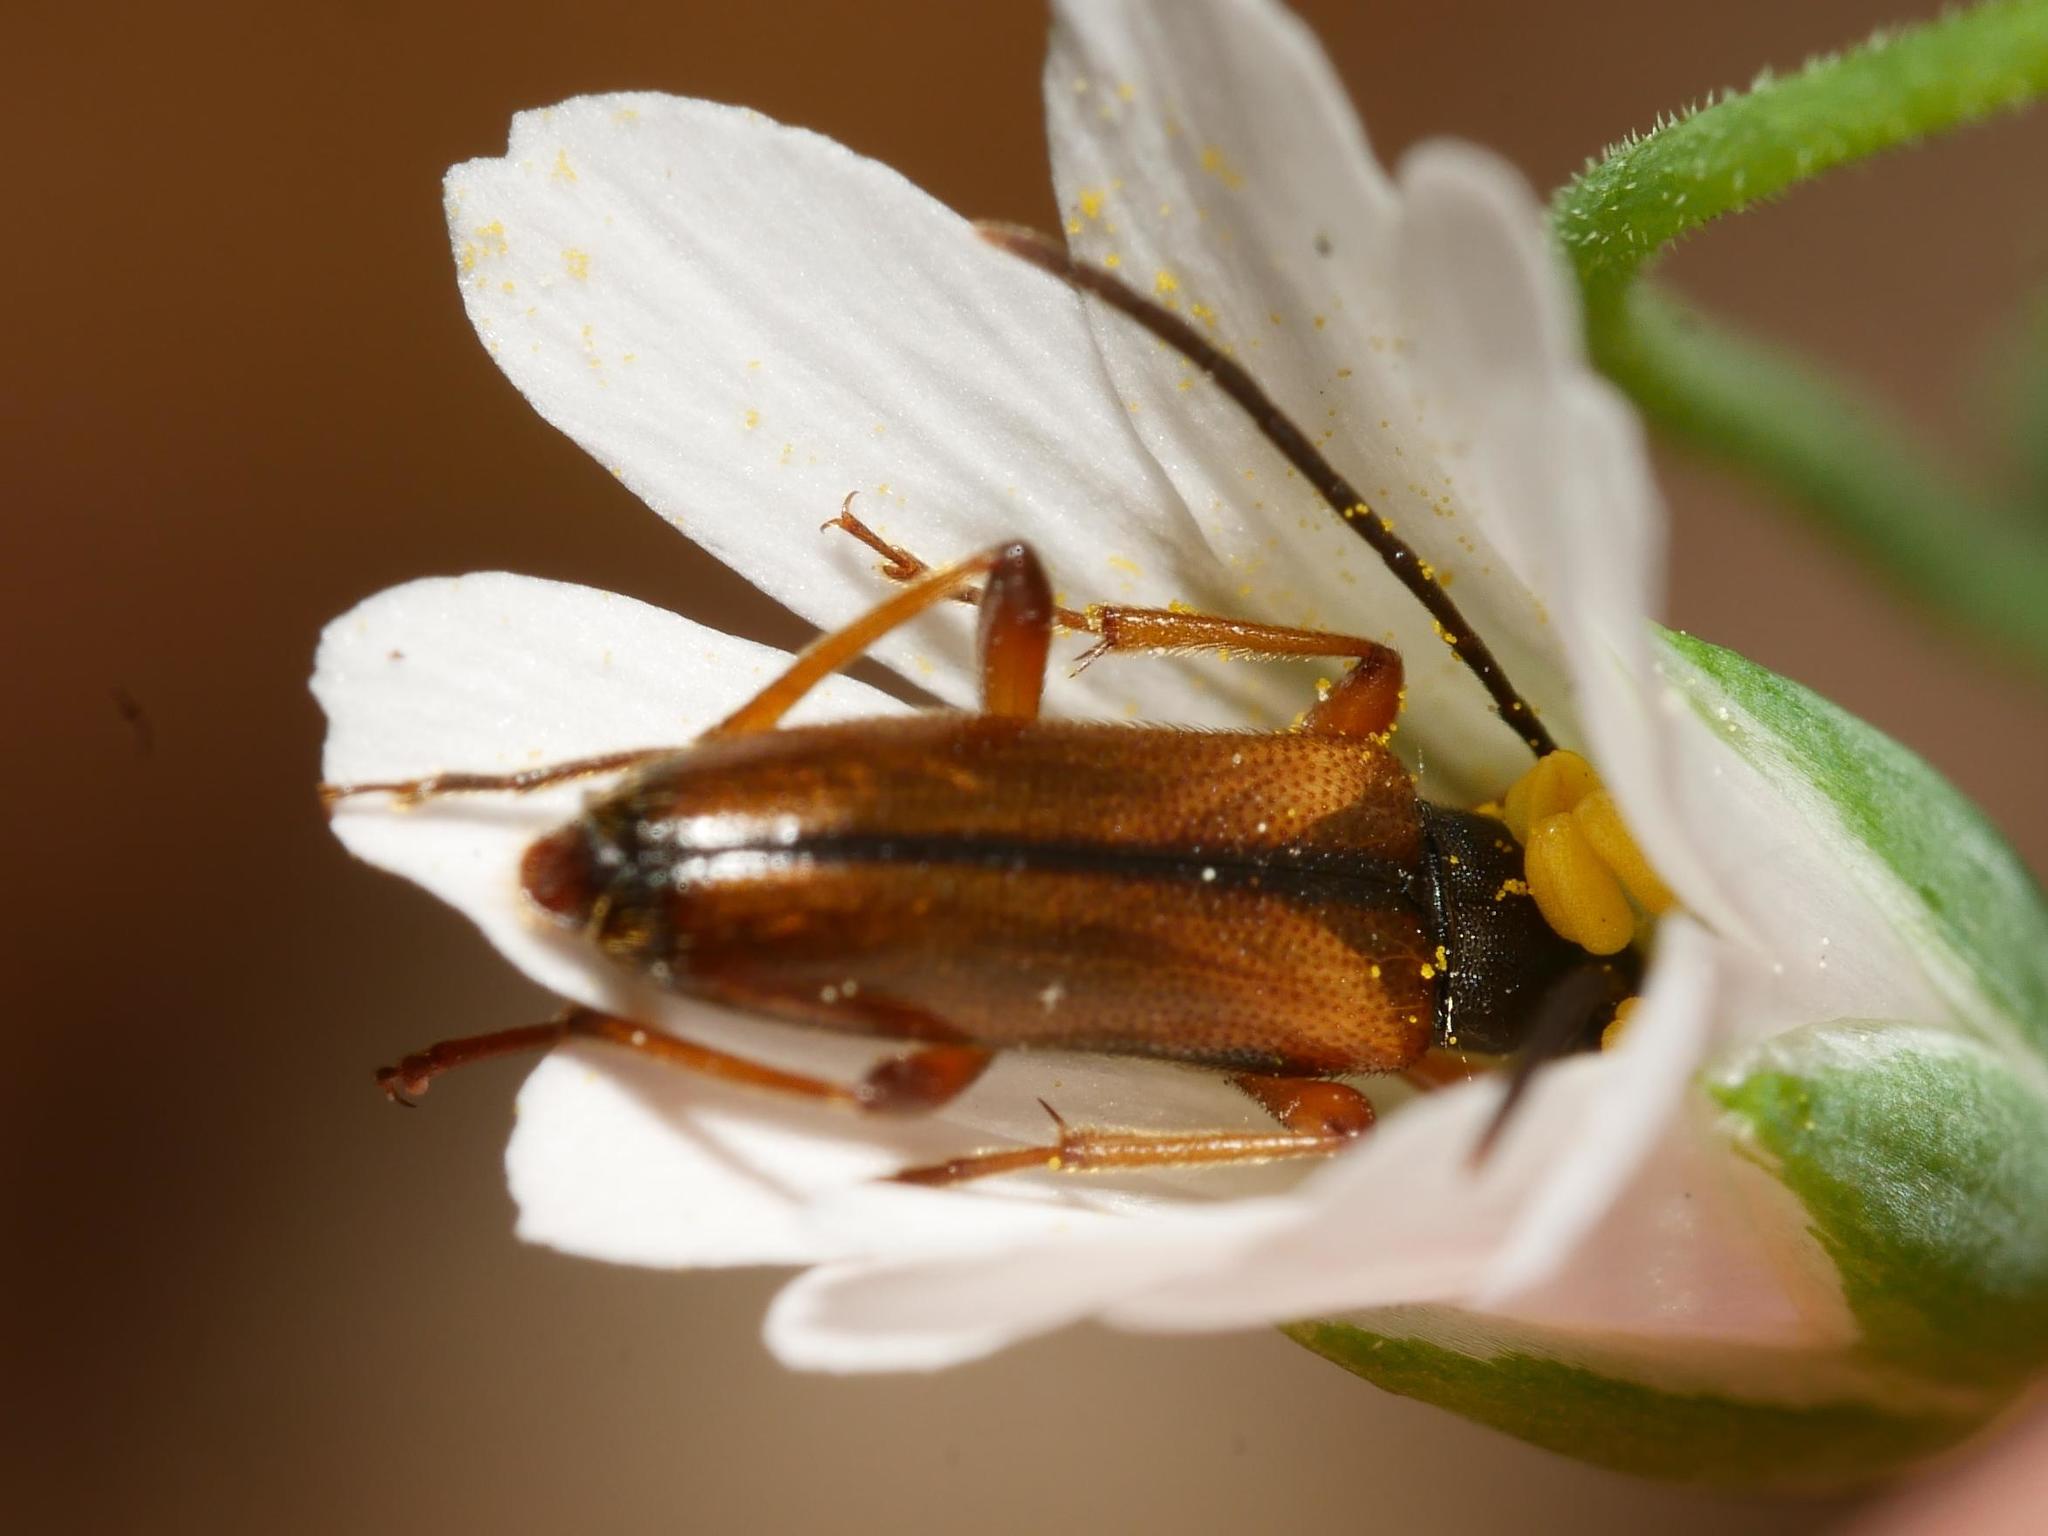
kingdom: Animalia
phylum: Arthropoda
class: Insecta
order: Coleoptera
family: Cerambycidae
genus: Alosterna
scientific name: Alosterna tabacicolor
